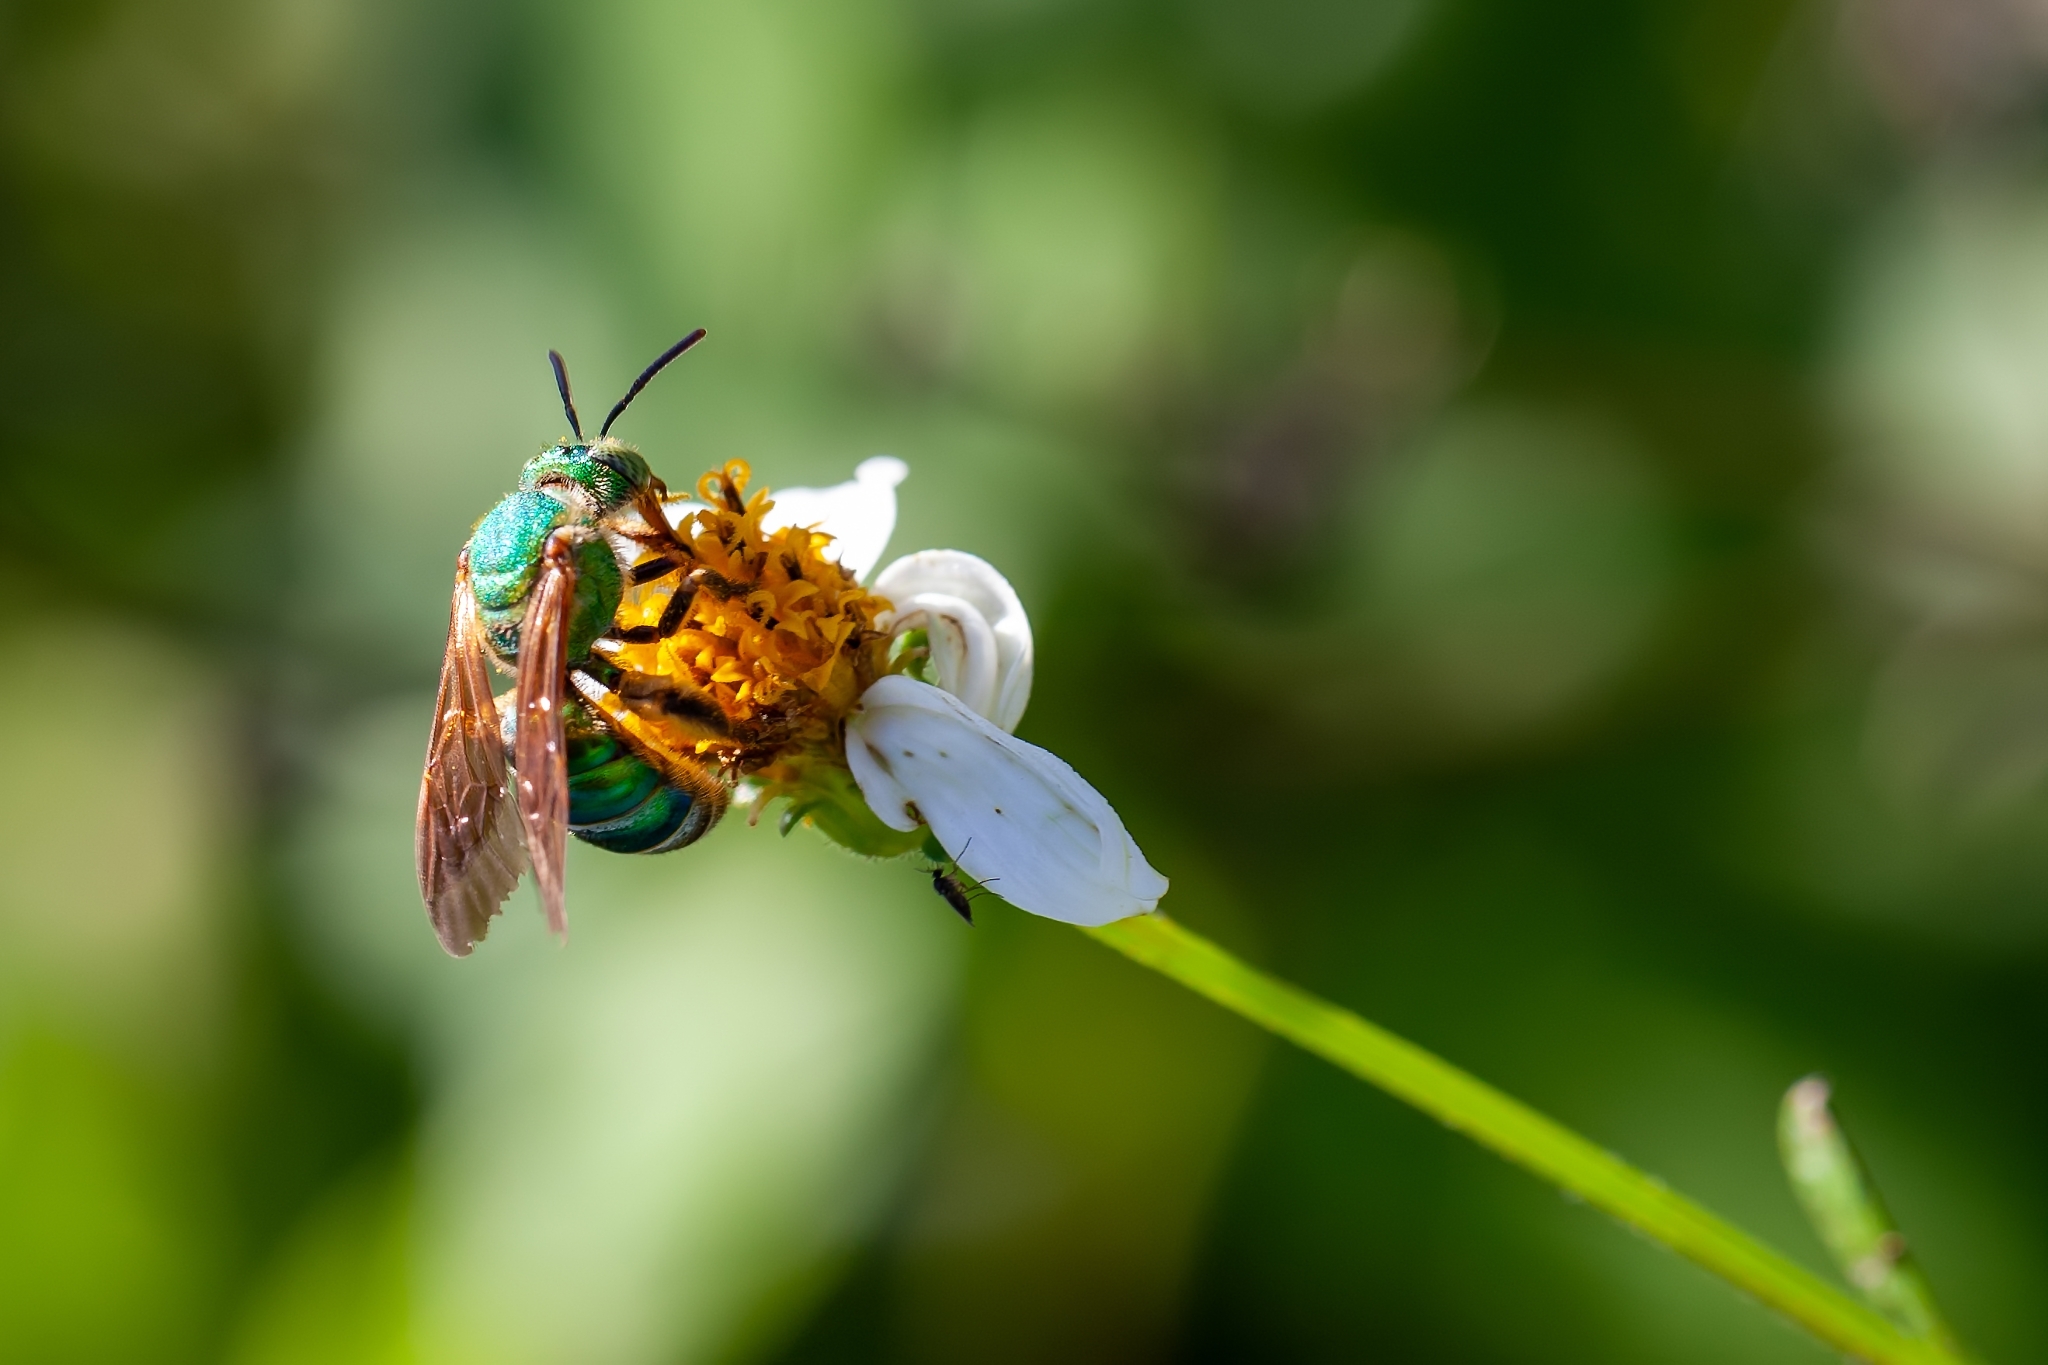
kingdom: Animalia
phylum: Arthropoda
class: Insecta
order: Hymenoptera
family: Halictidae
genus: Agapostemon
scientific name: Agapostemon splendens
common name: Brown-winged striped sweat bee
